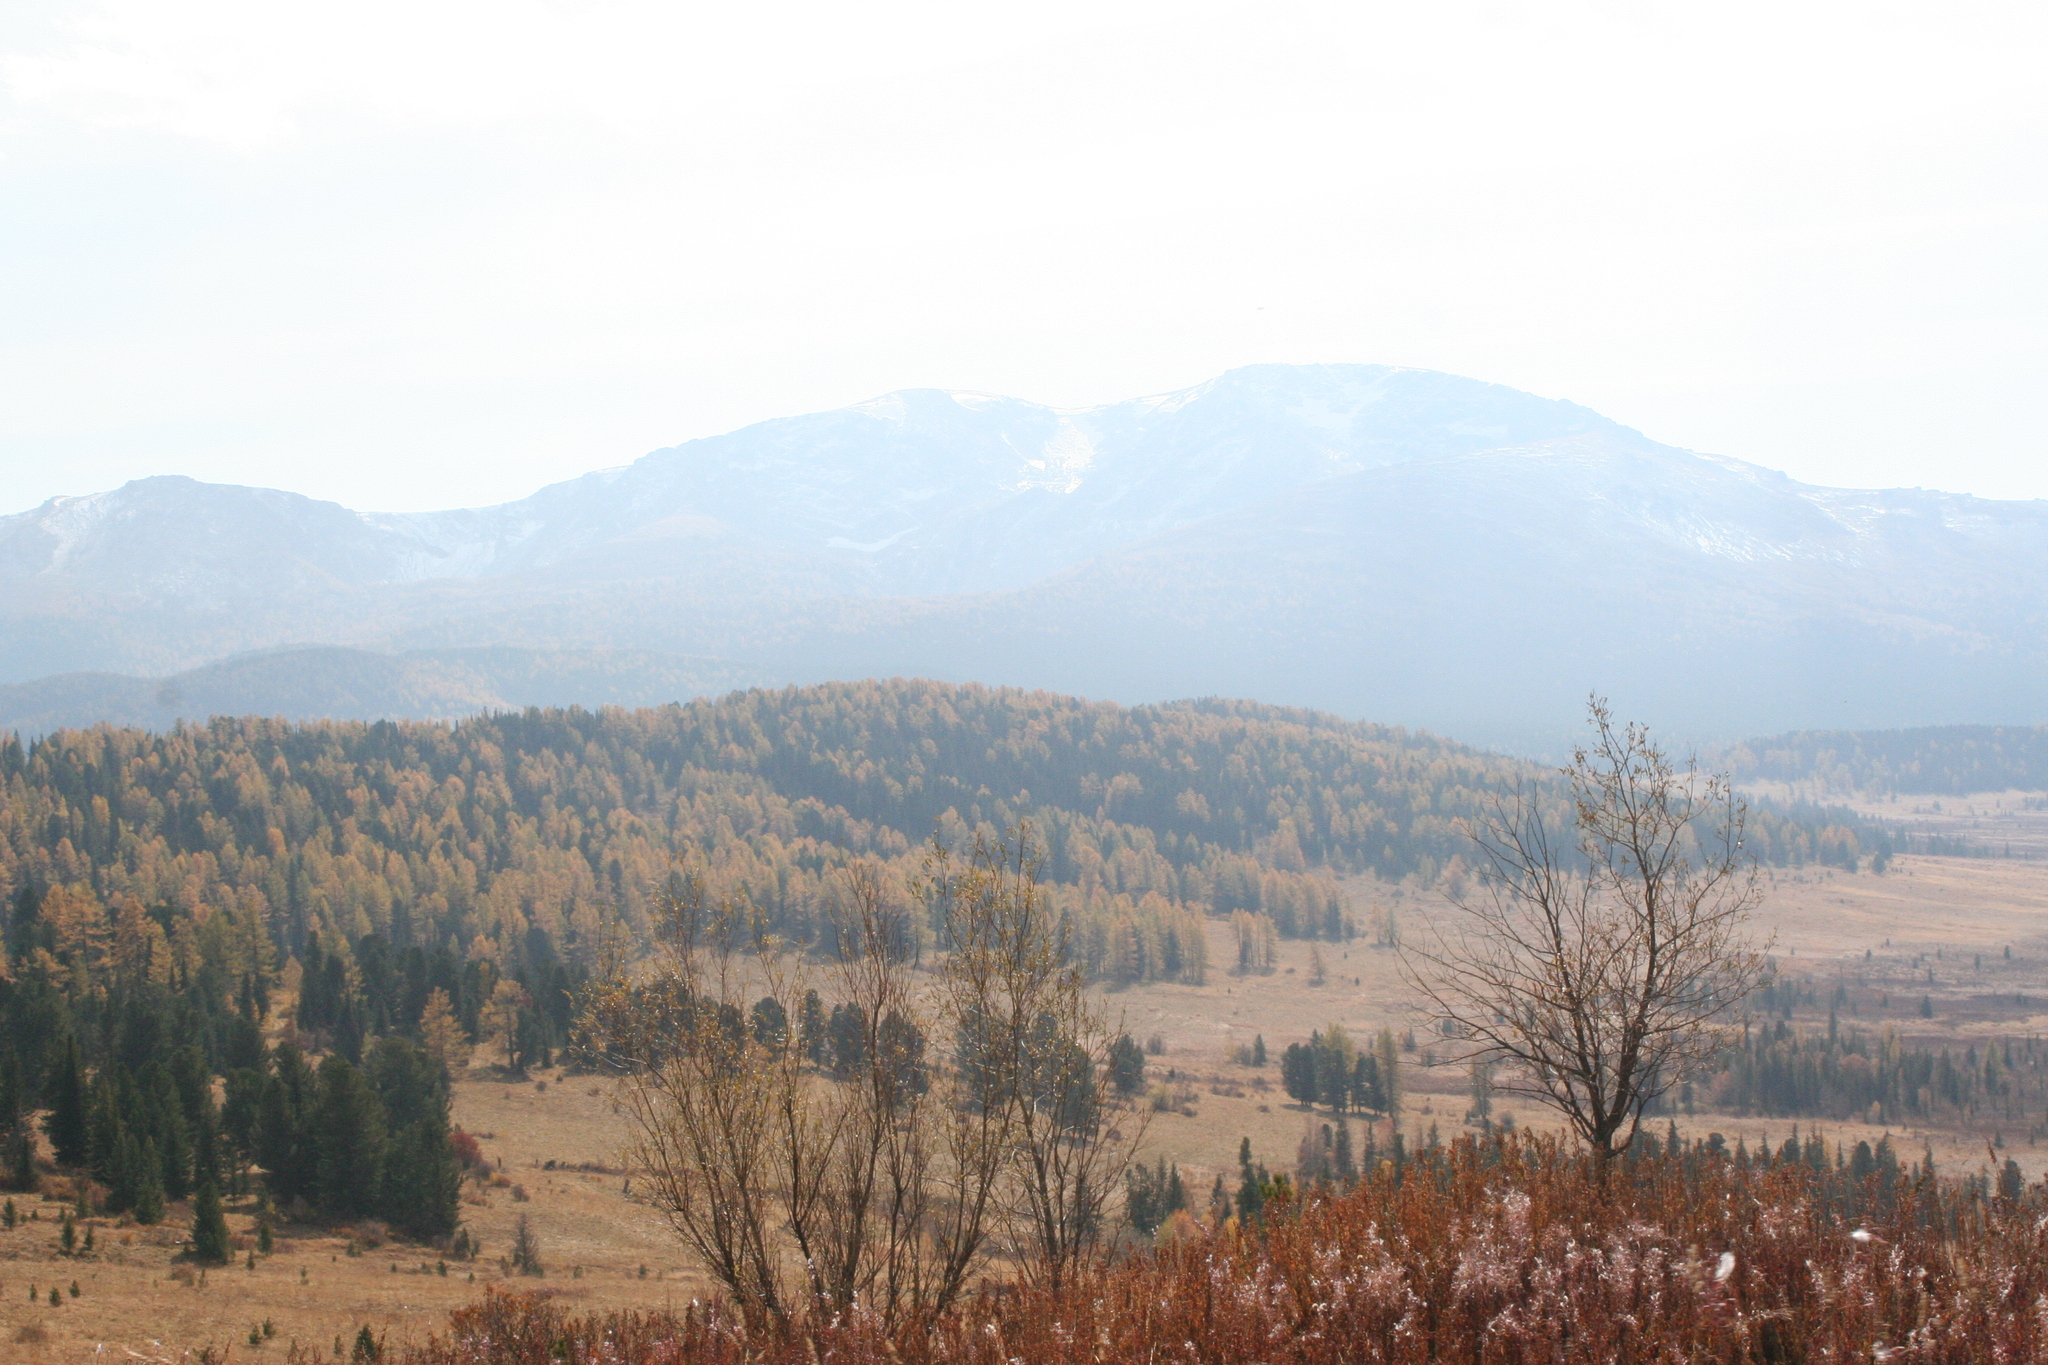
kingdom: Plantae
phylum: Tracheophyta
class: Magnoliopsida
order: Myrtales
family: Onagraceae
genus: Chamaenerion
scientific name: Chamaenerion angustifolium
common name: Fireweed
